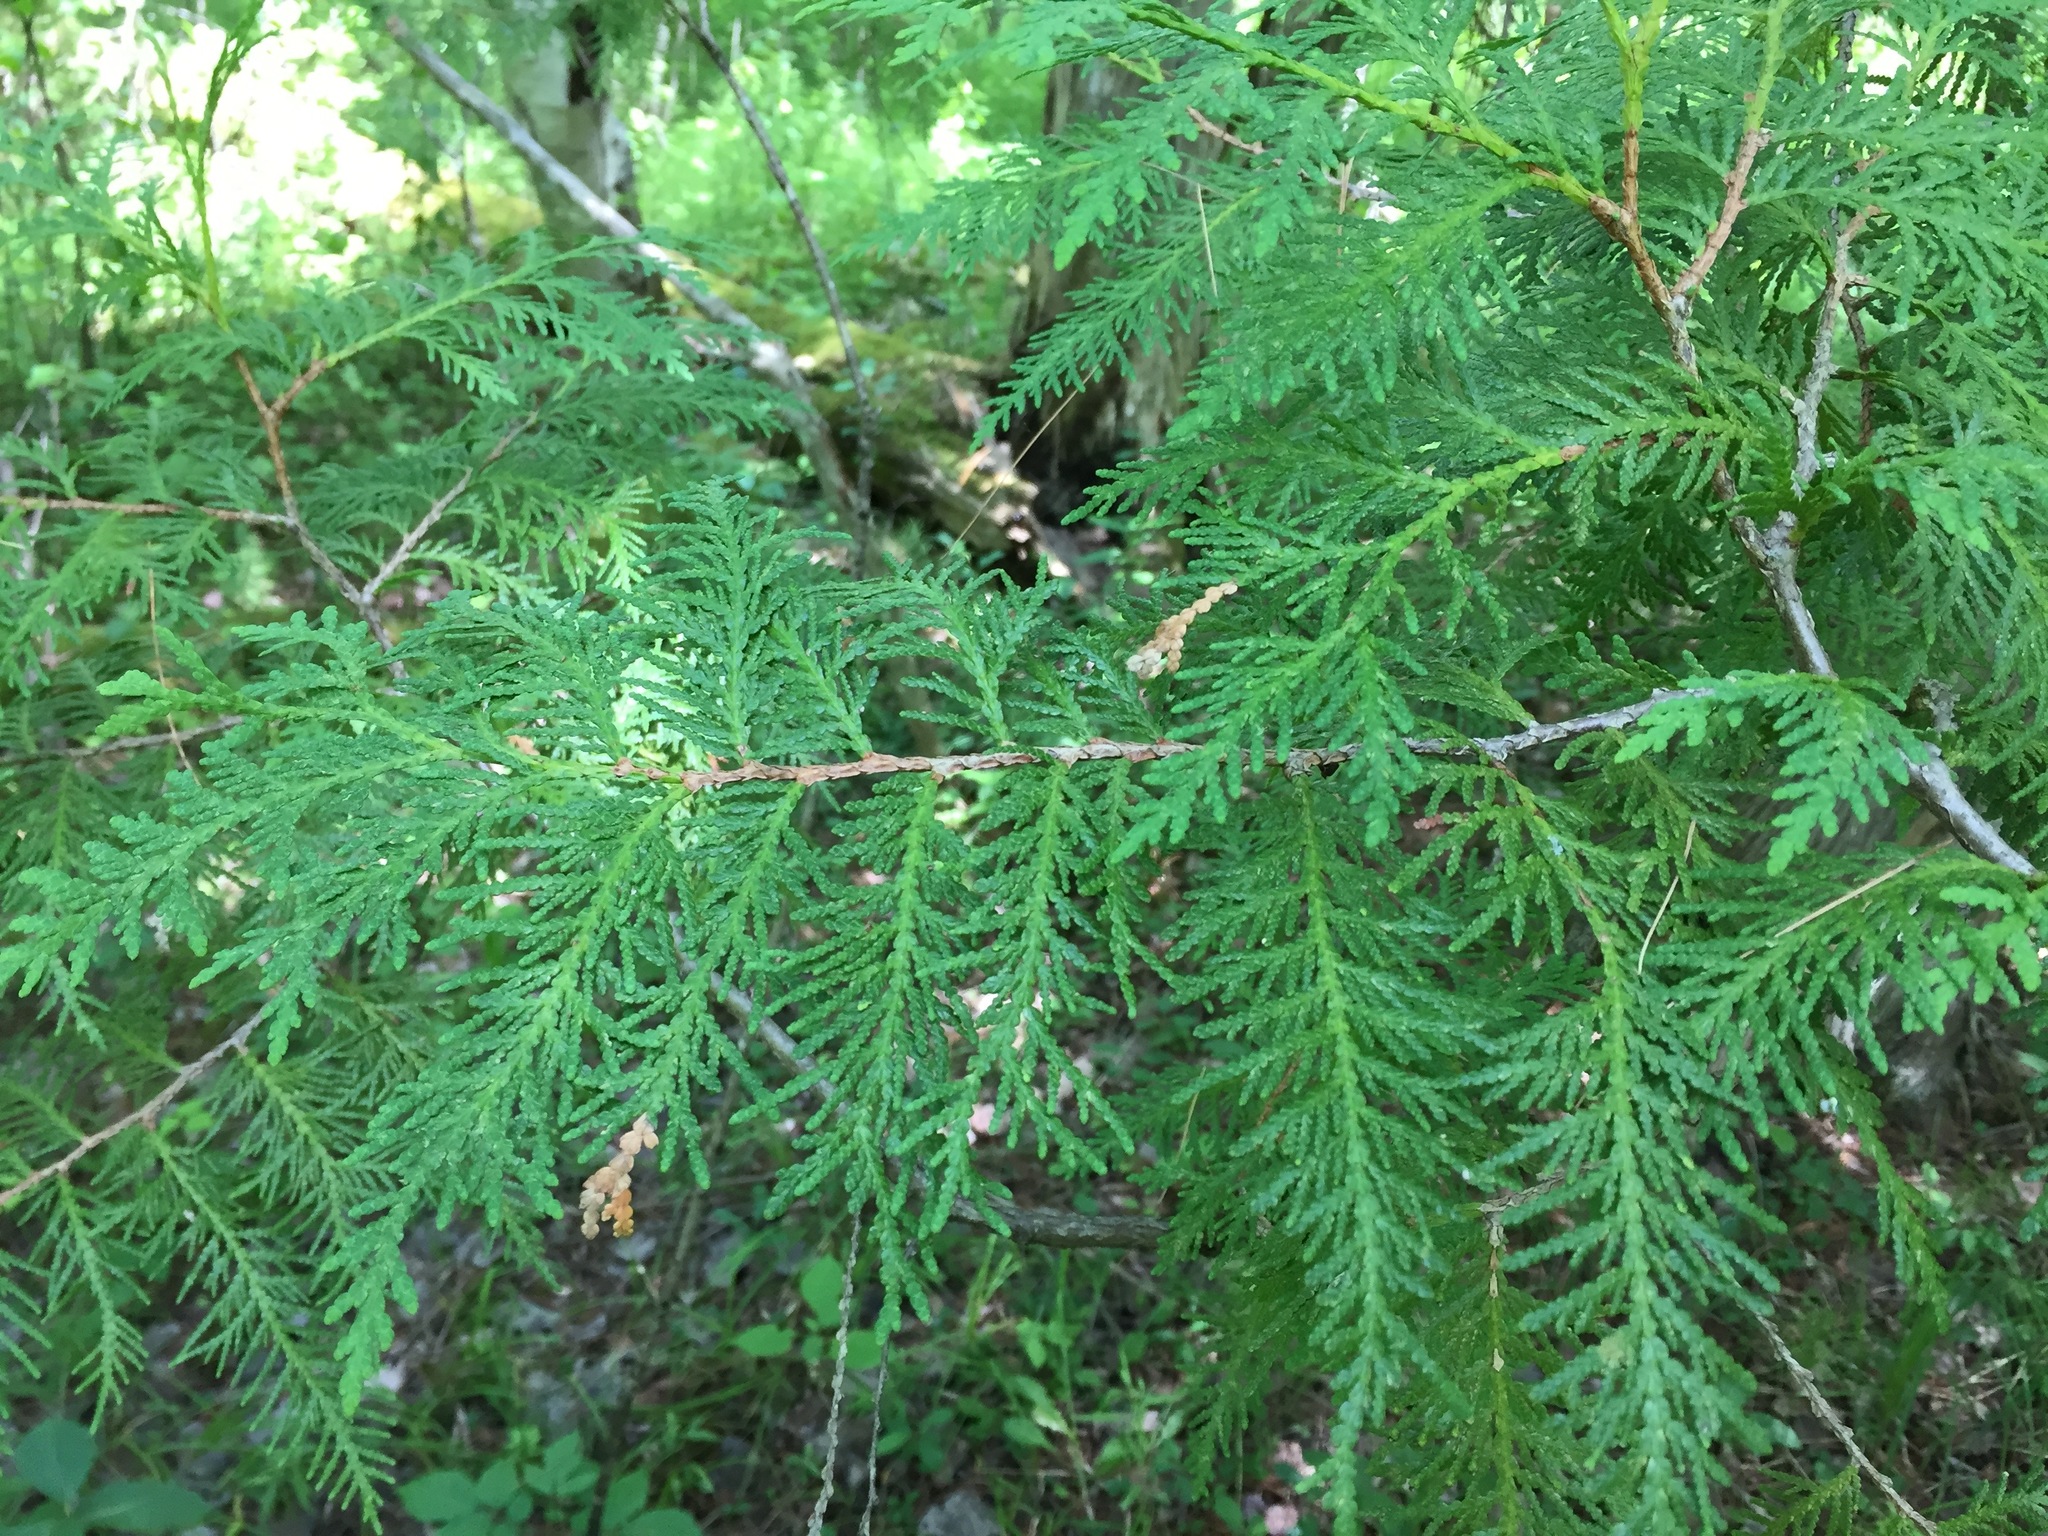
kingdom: Plantae
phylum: Tracheophyta
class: Pinopsida
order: Pinales
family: Cupressaceae
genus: Thuja
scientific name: Thuja occidentalis
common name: Northern white-cedar
